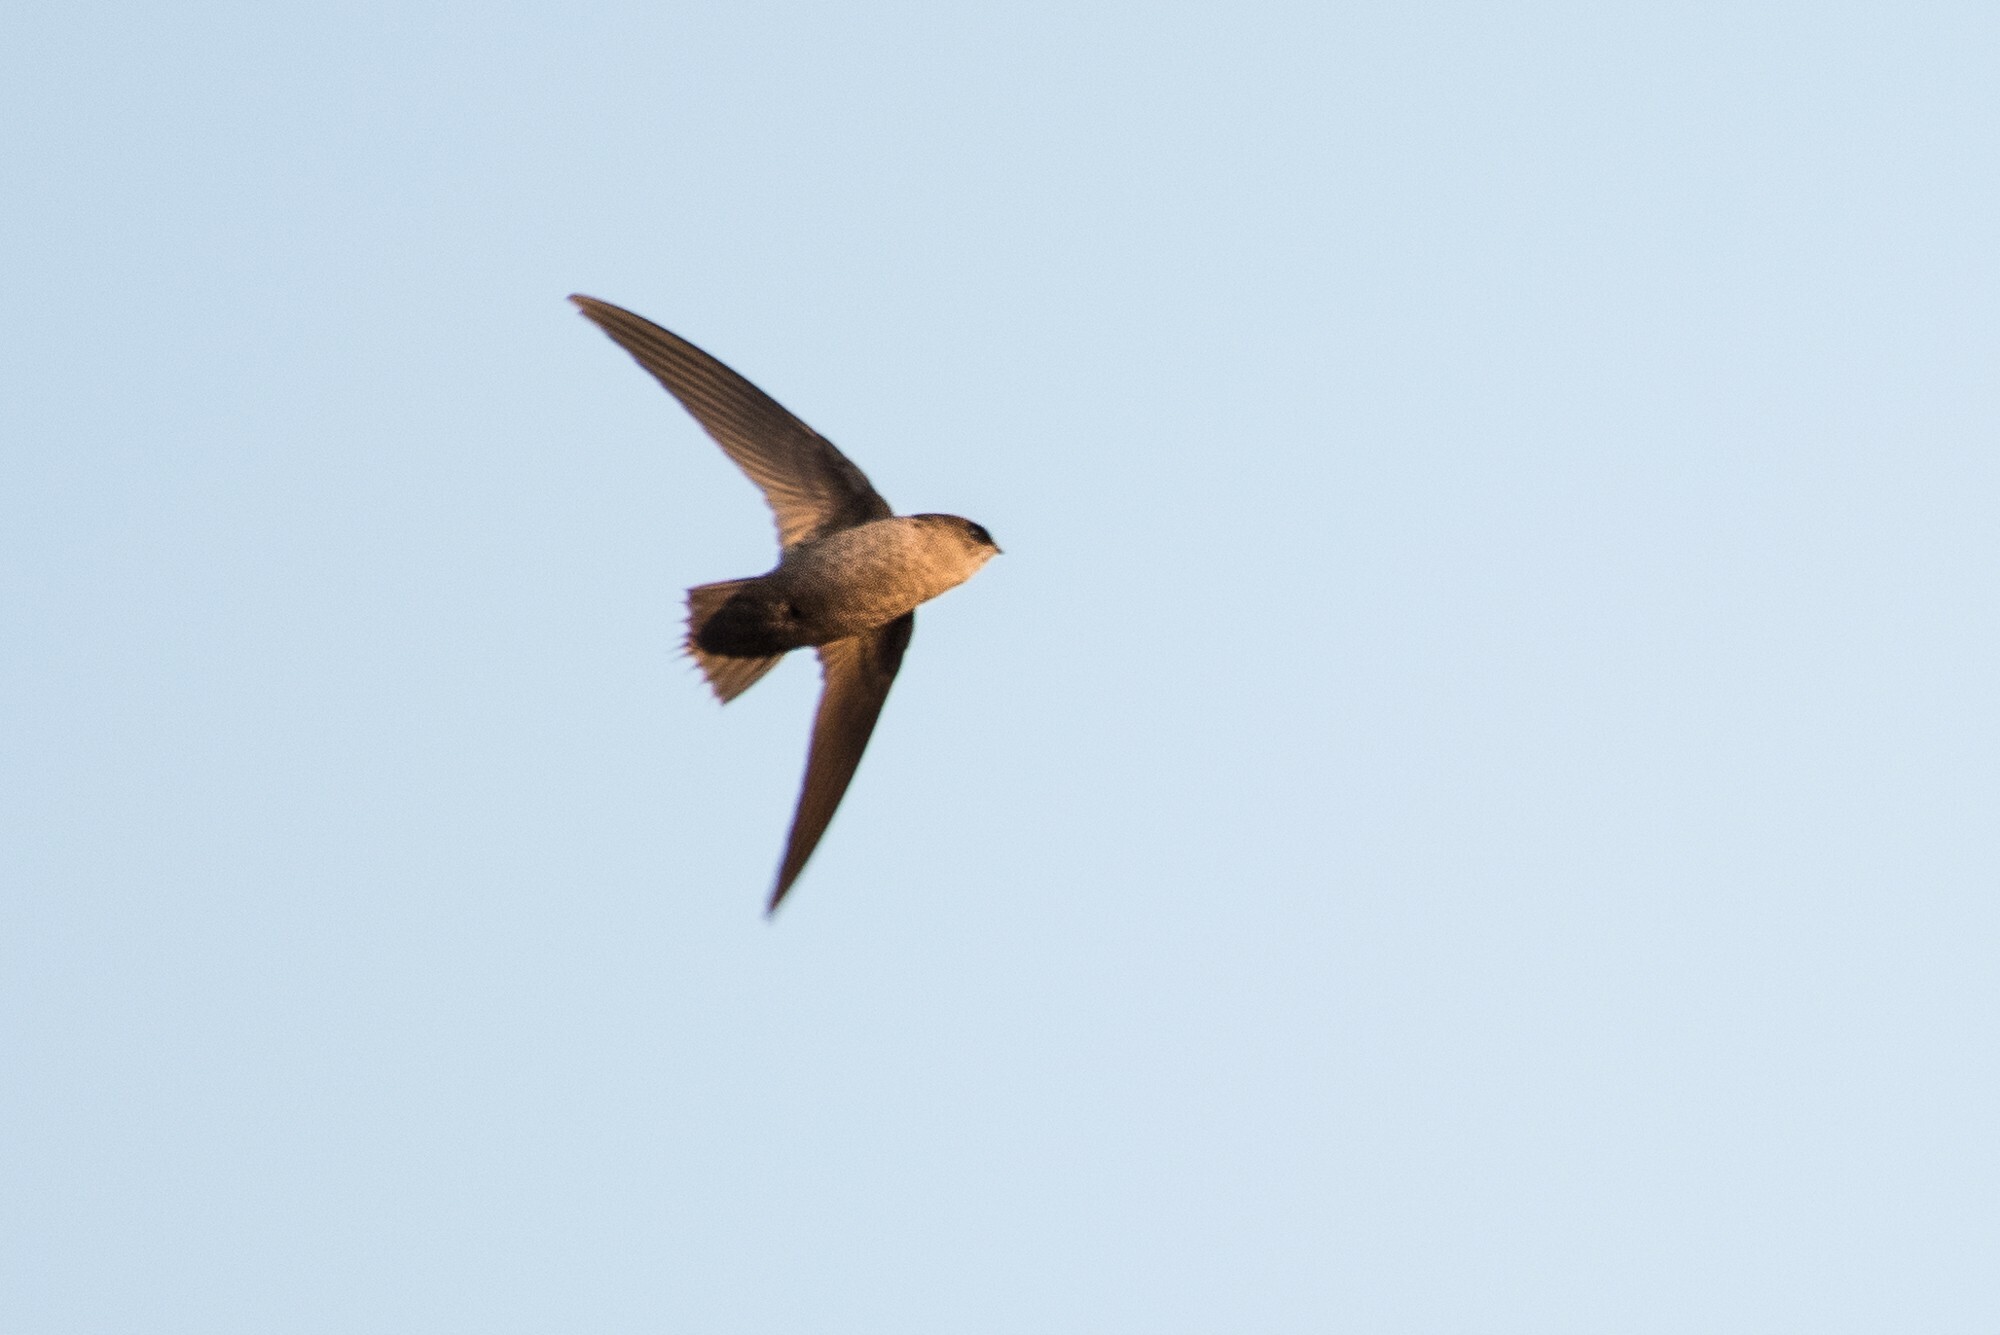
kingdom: Animalia
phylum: Chordata
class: Aves
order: Apodiformes
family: Apodidae
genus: Chaetura
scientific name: Chaetura vauxi
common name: Vaux's swift
